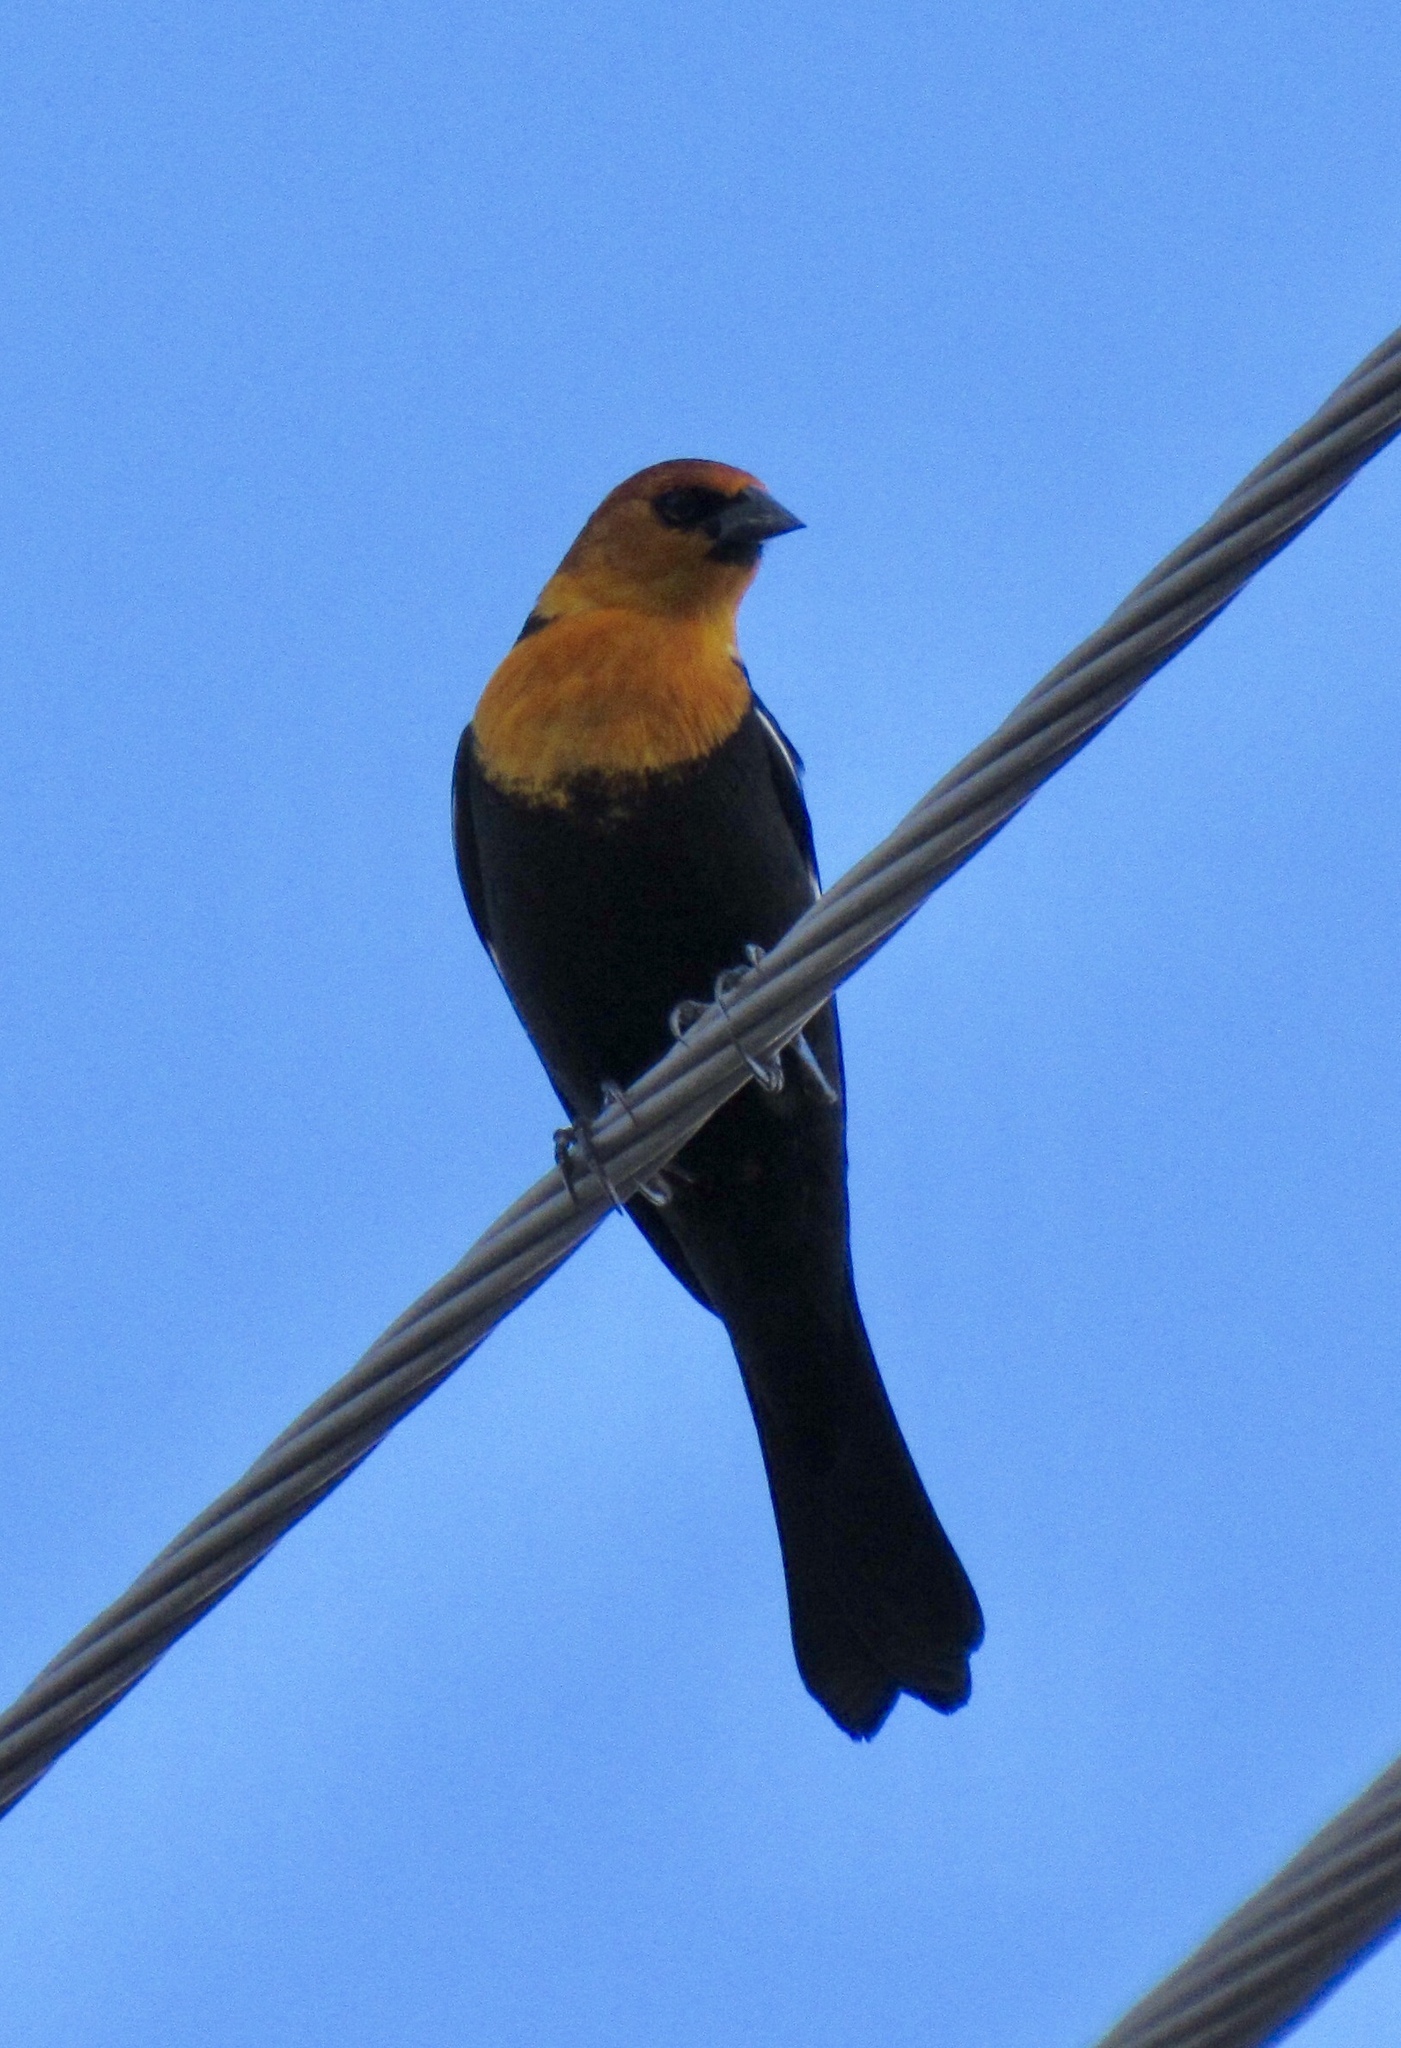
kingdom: Animalia
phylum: Chordata
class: Aves
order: Passeriformes
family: Icteridae
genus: Xanthocephalus
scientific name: Xanthocephalus xanthocephalus
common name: Yellow-headed blackbird
